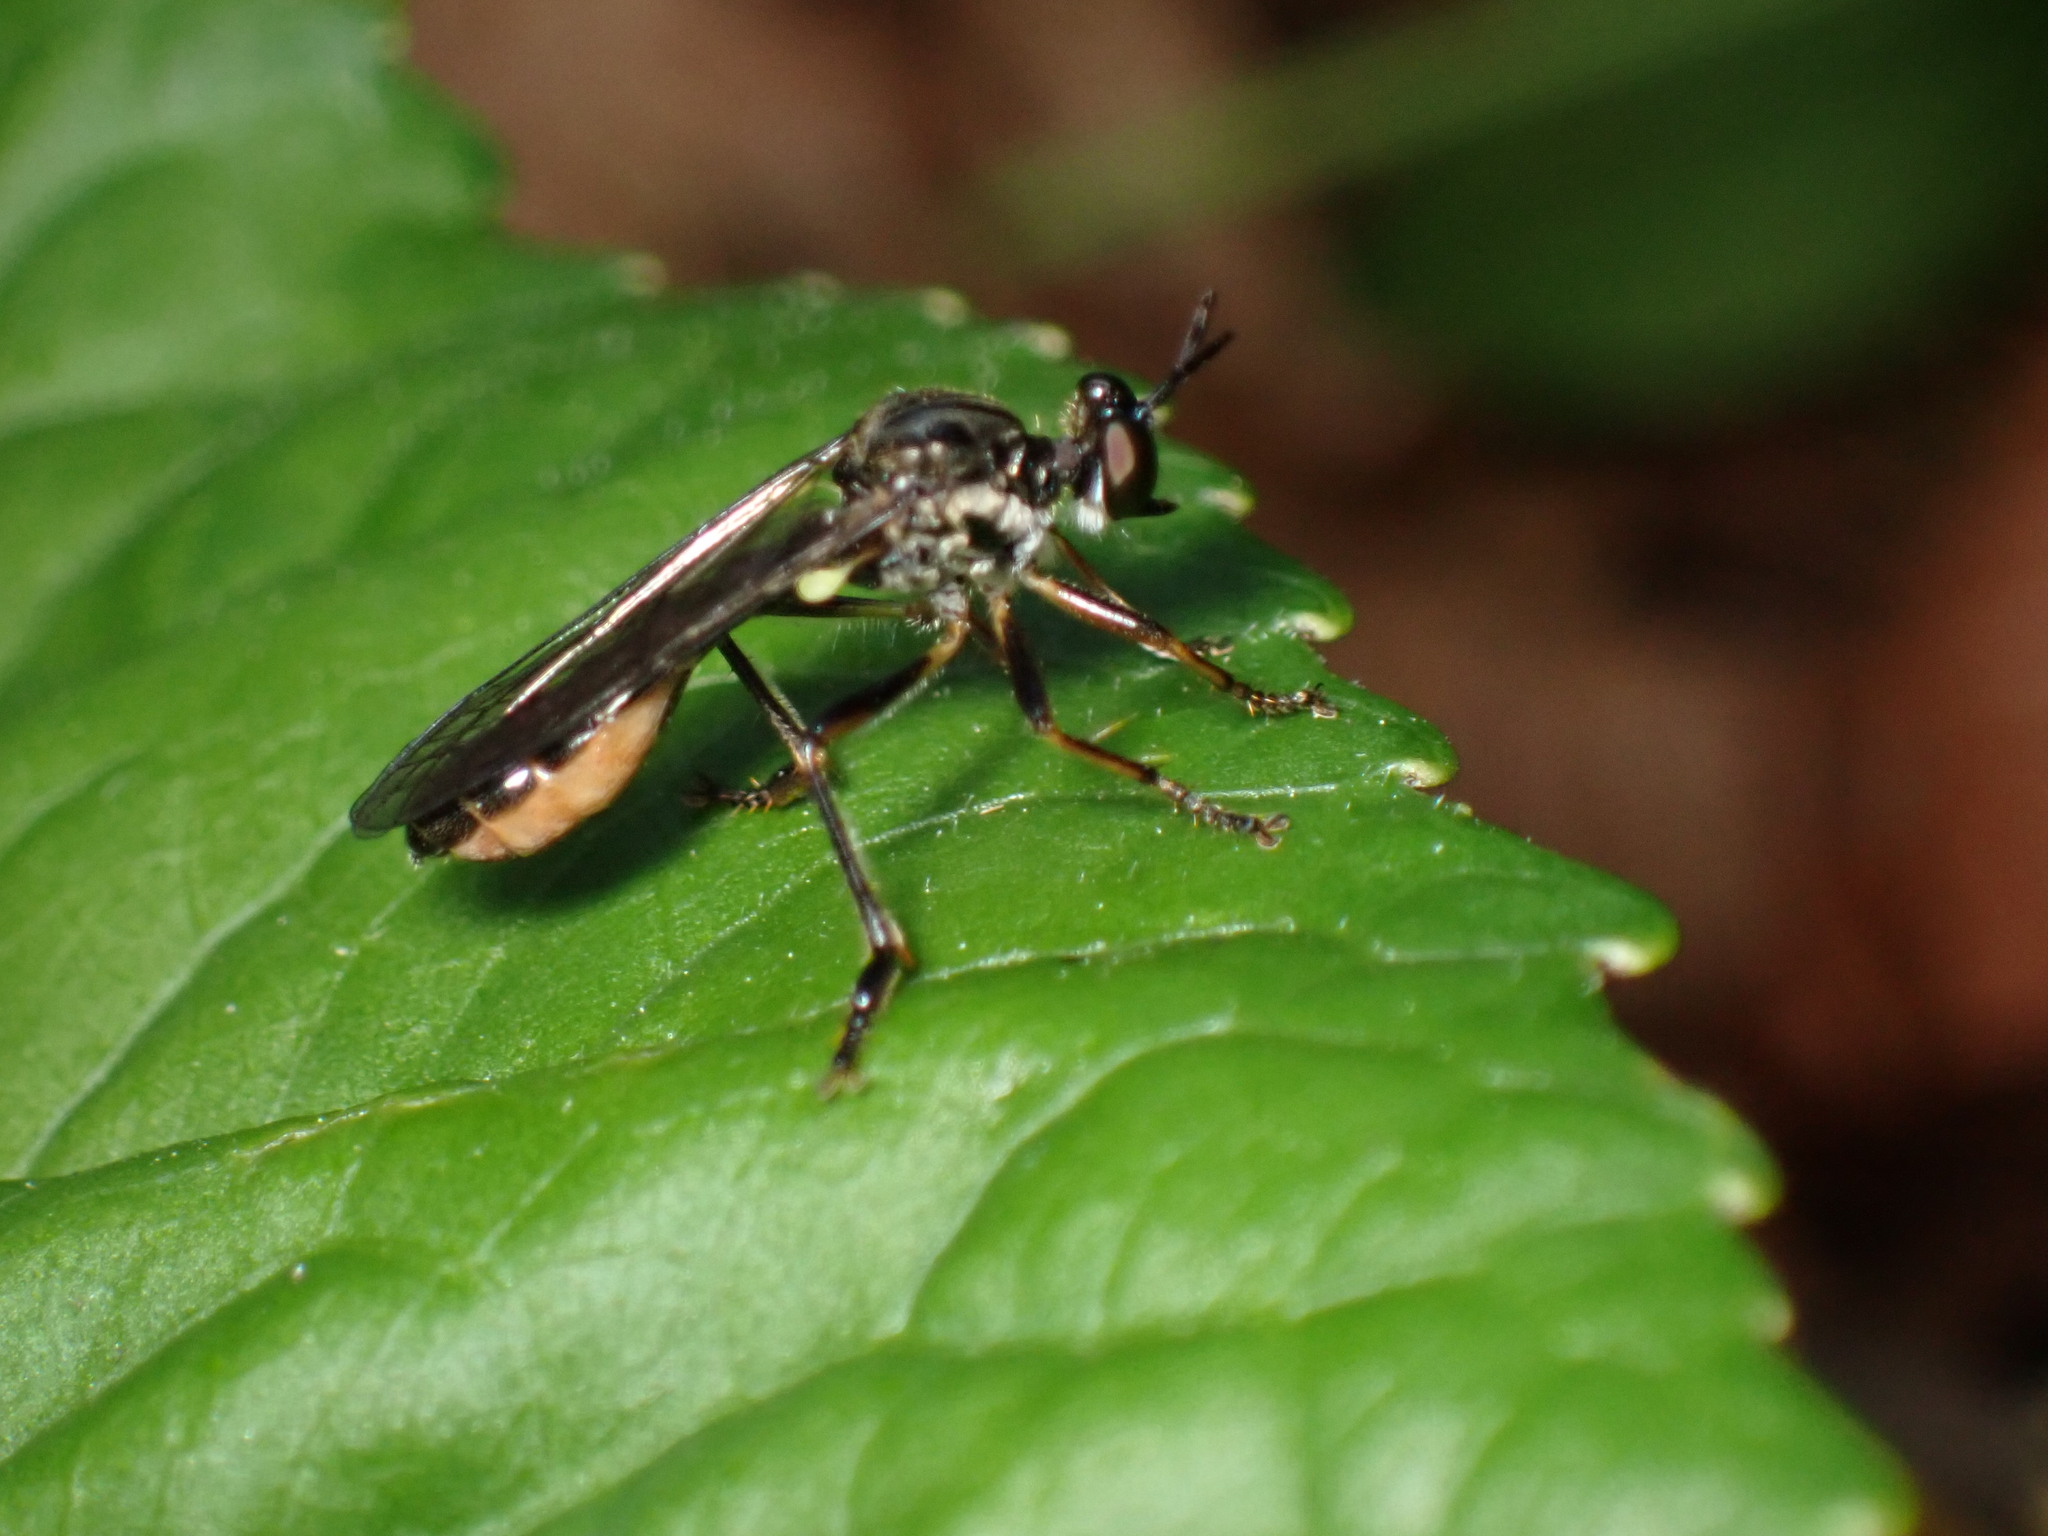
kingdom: Animalia
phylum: Arthropoda
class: Insecta
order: Diptera
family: Asilidae
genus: Dioctria
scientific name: Dioctria hyalipennis
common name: Stripe-legged robberfly
